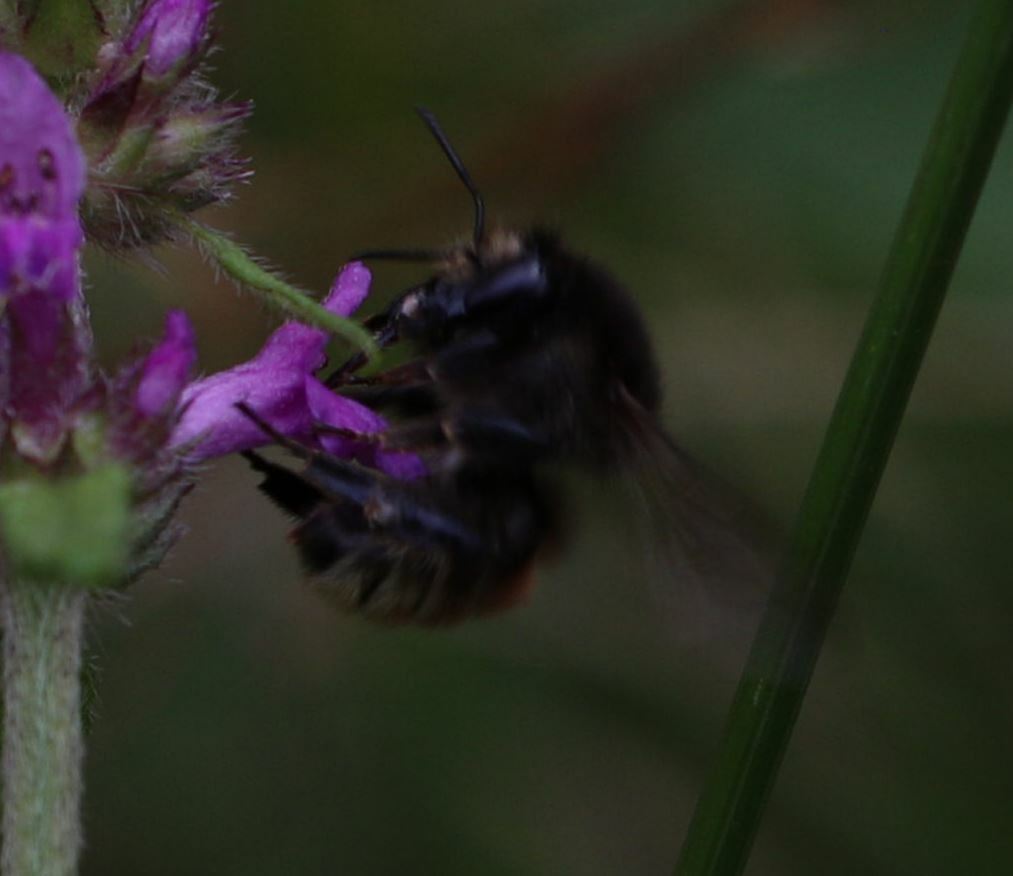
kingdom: Animalia
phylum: Arthropoda
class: Insecta
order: Hymenoptera
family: Apidae
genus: Bombus
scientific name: Bombus humilis
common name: Brown-banded carder-bee
